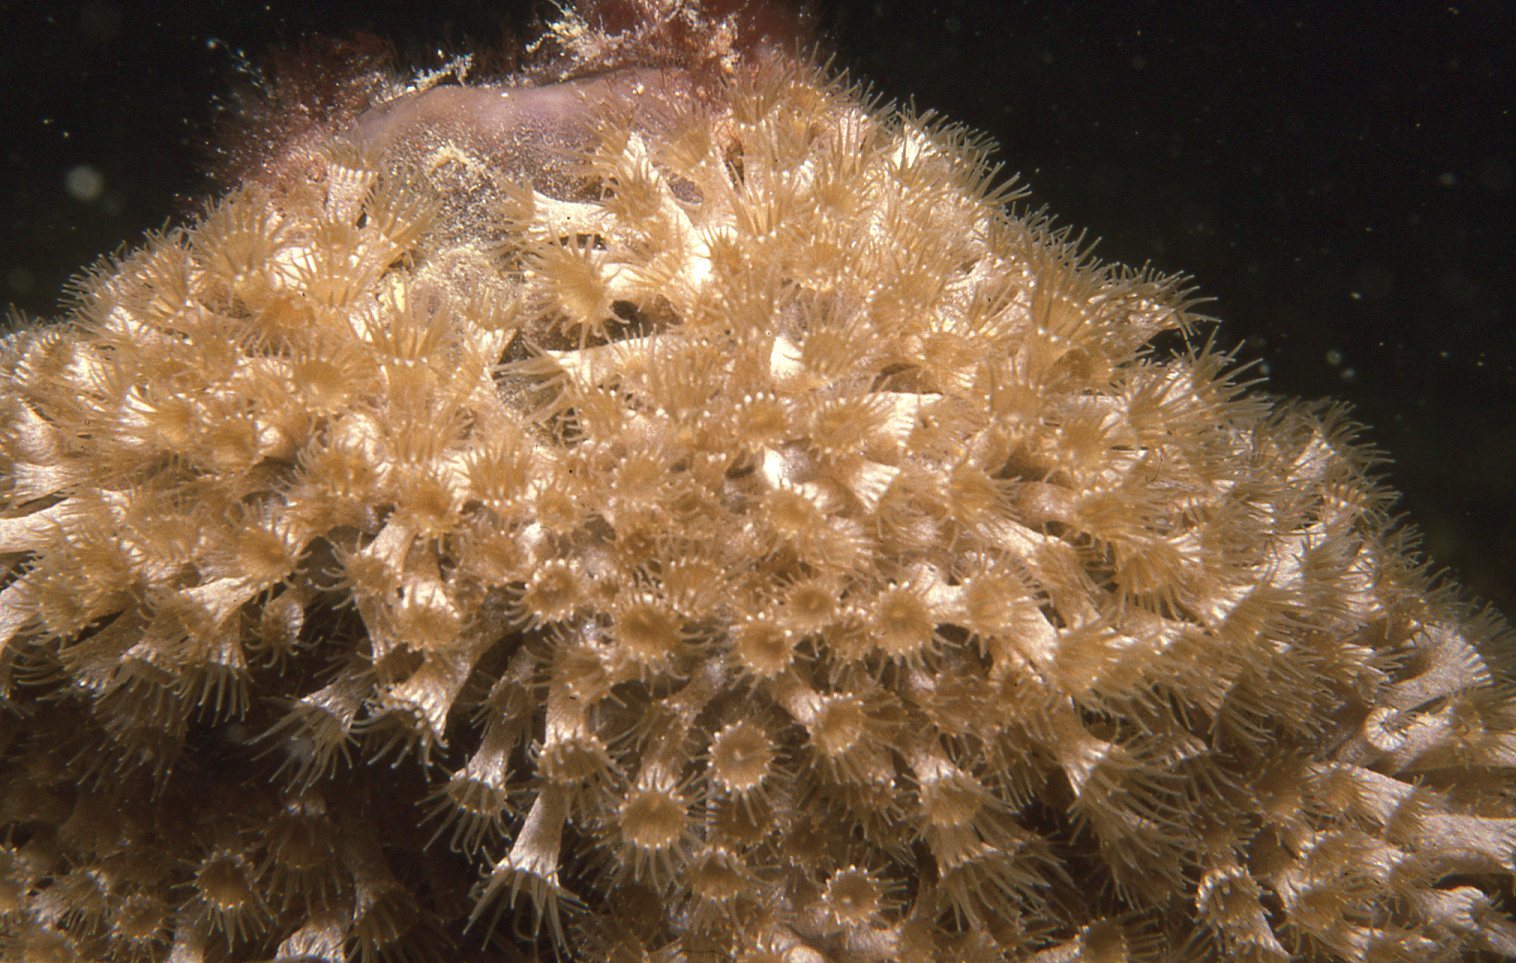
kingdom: Animalia
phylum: Cnidaria
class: Anthozoa
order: Zoantharia
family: Epizoanthidae
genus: Epizoanthus
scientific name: Epizoanthus sabulosus
